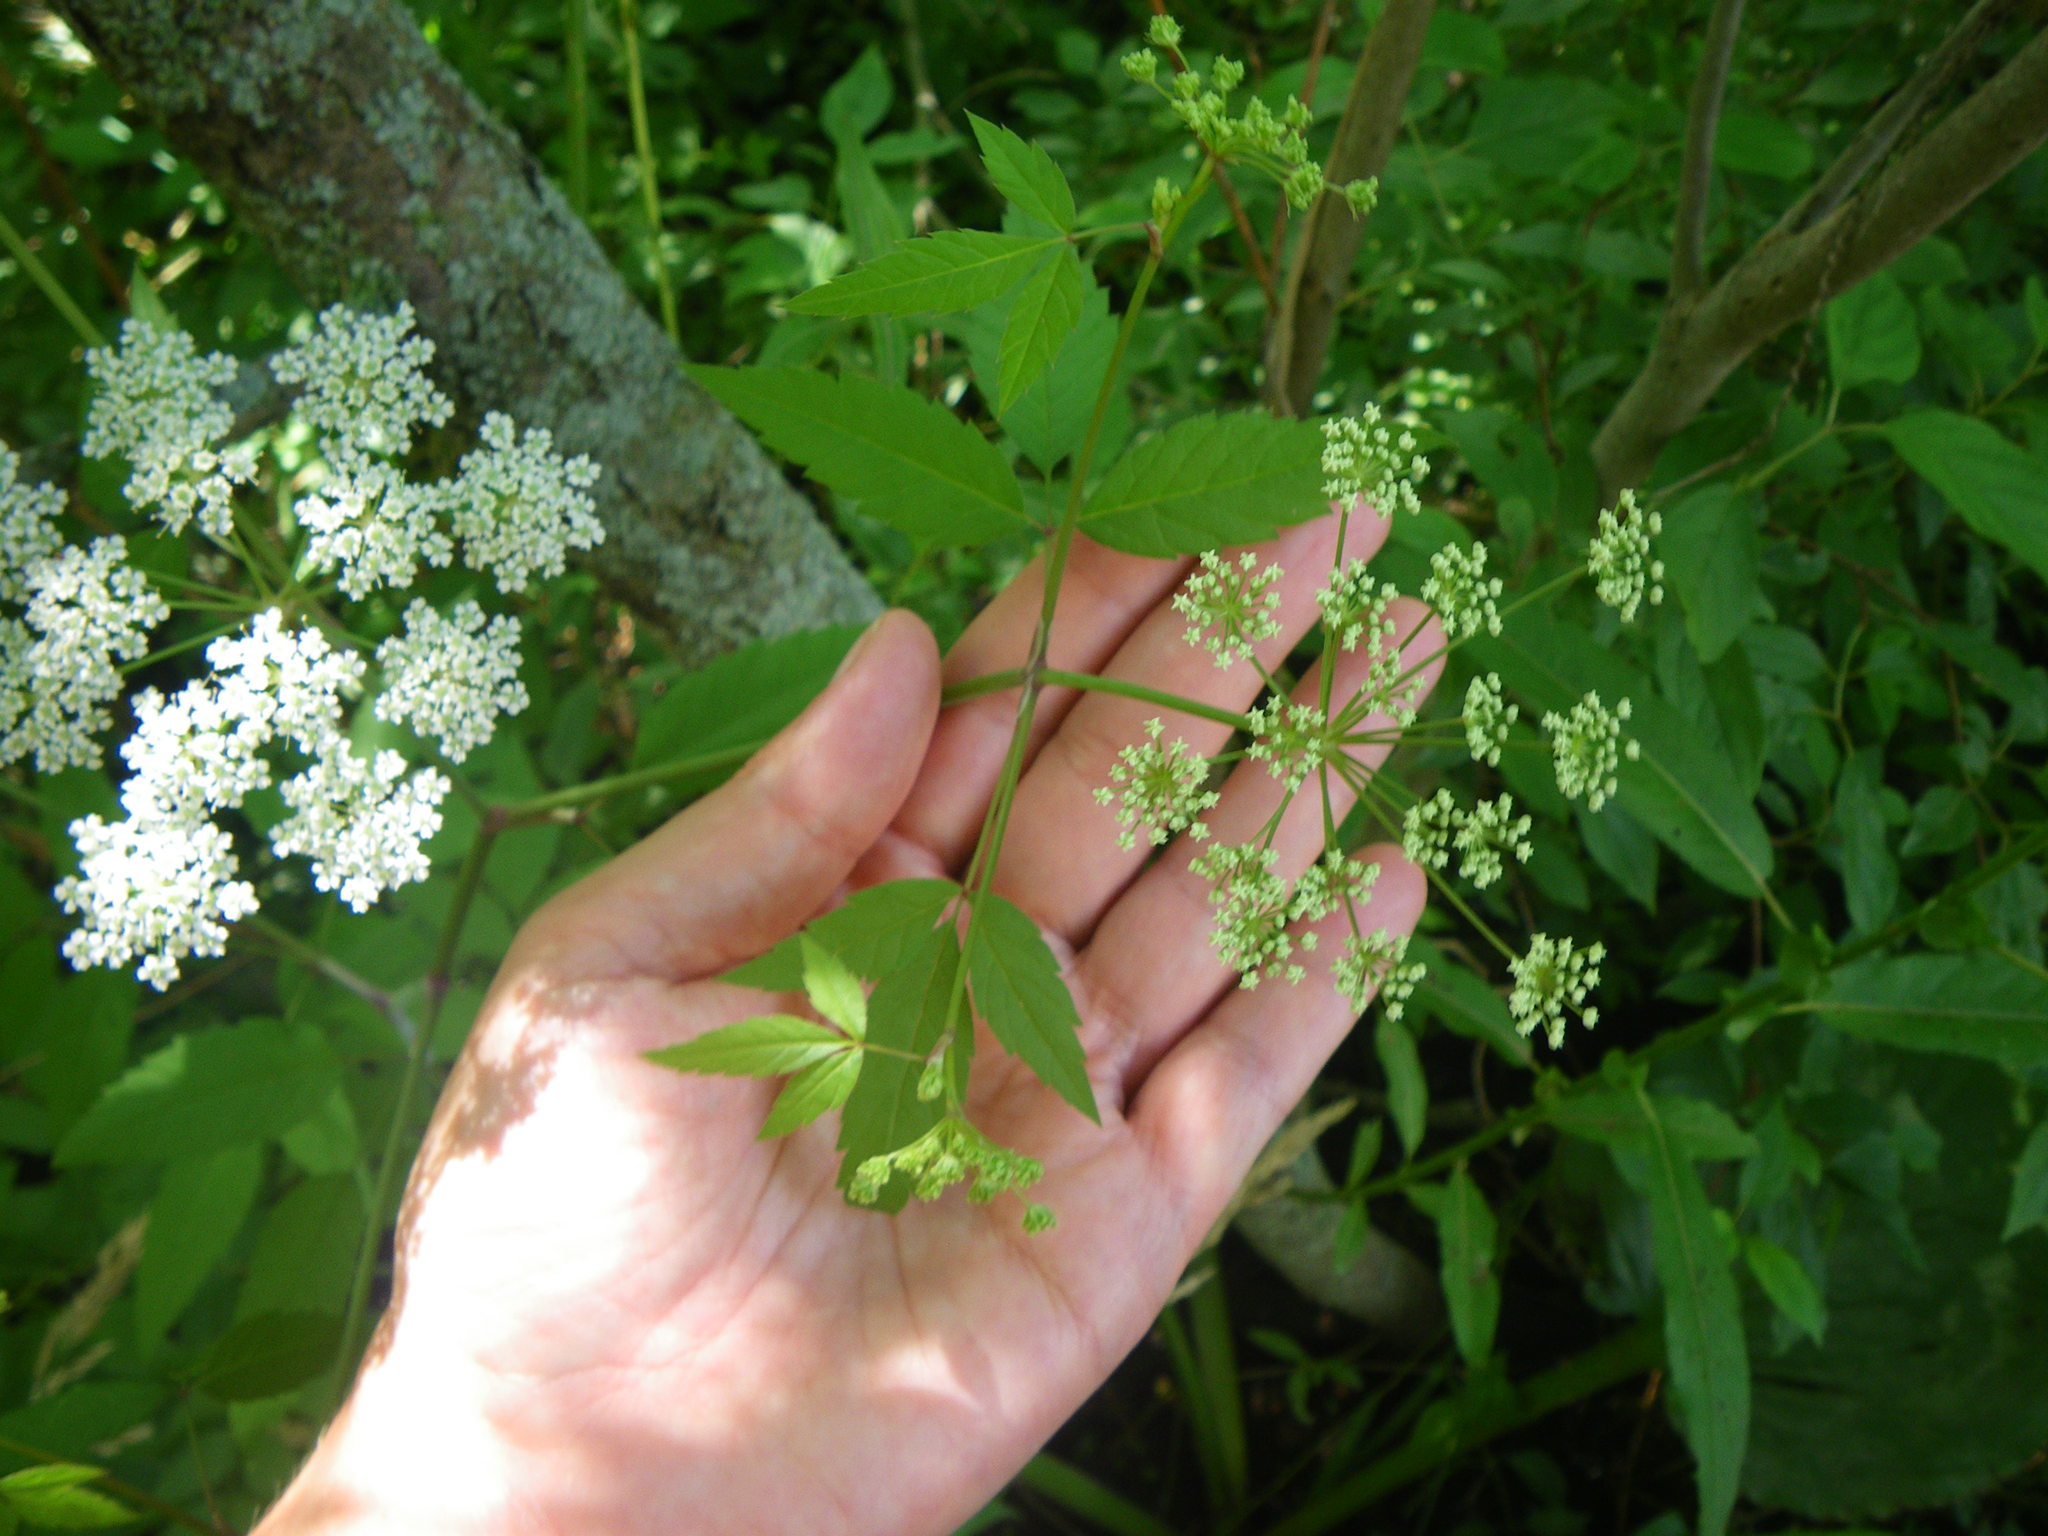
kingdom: Plantae
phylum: Tracheophyta
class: Magnoliopsida
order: Apiales
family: Apiaceae
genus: Cicuta
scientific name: Cicuta maculata
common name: Spotted cowbane
